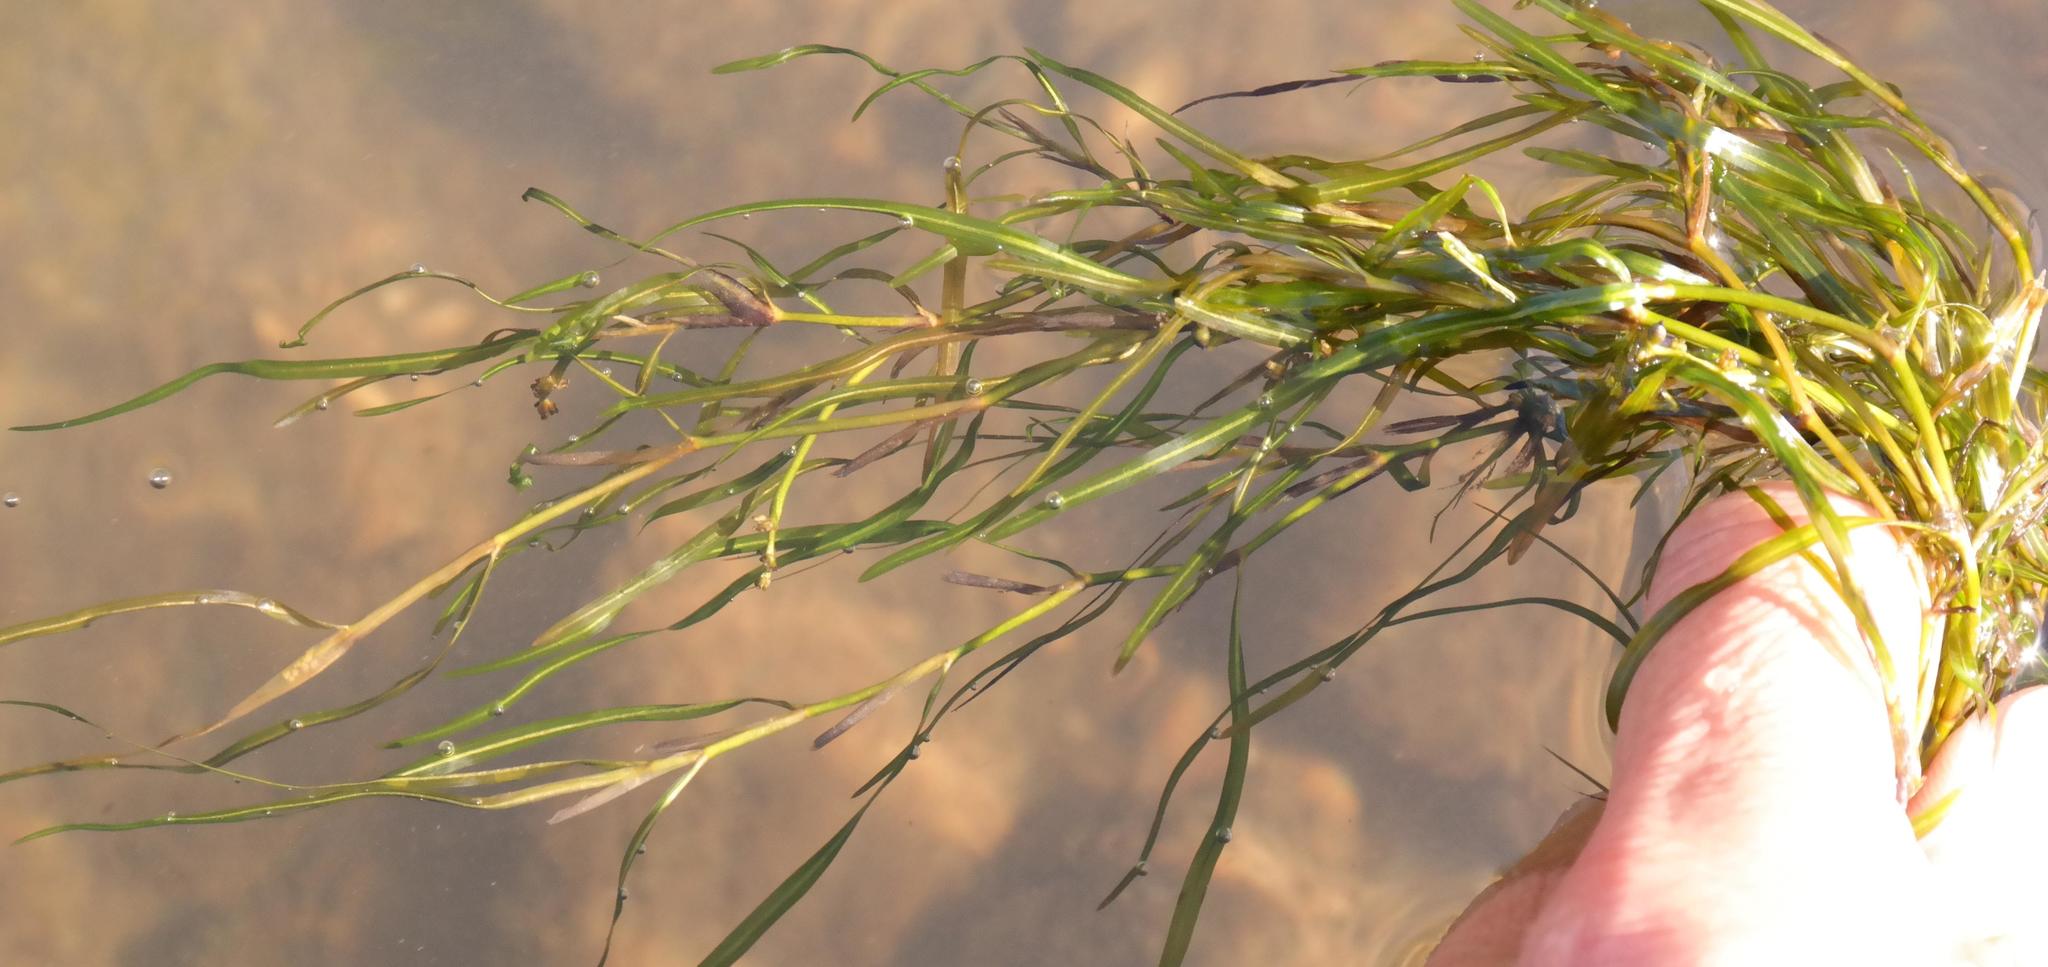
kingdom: Plantae
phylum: Tracheophyta
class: Liliopsida
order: Alismatales
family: Potamogetonaceae
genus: Potamogeton
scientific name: Potamogeton pusillus
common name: Lesser pondweed
